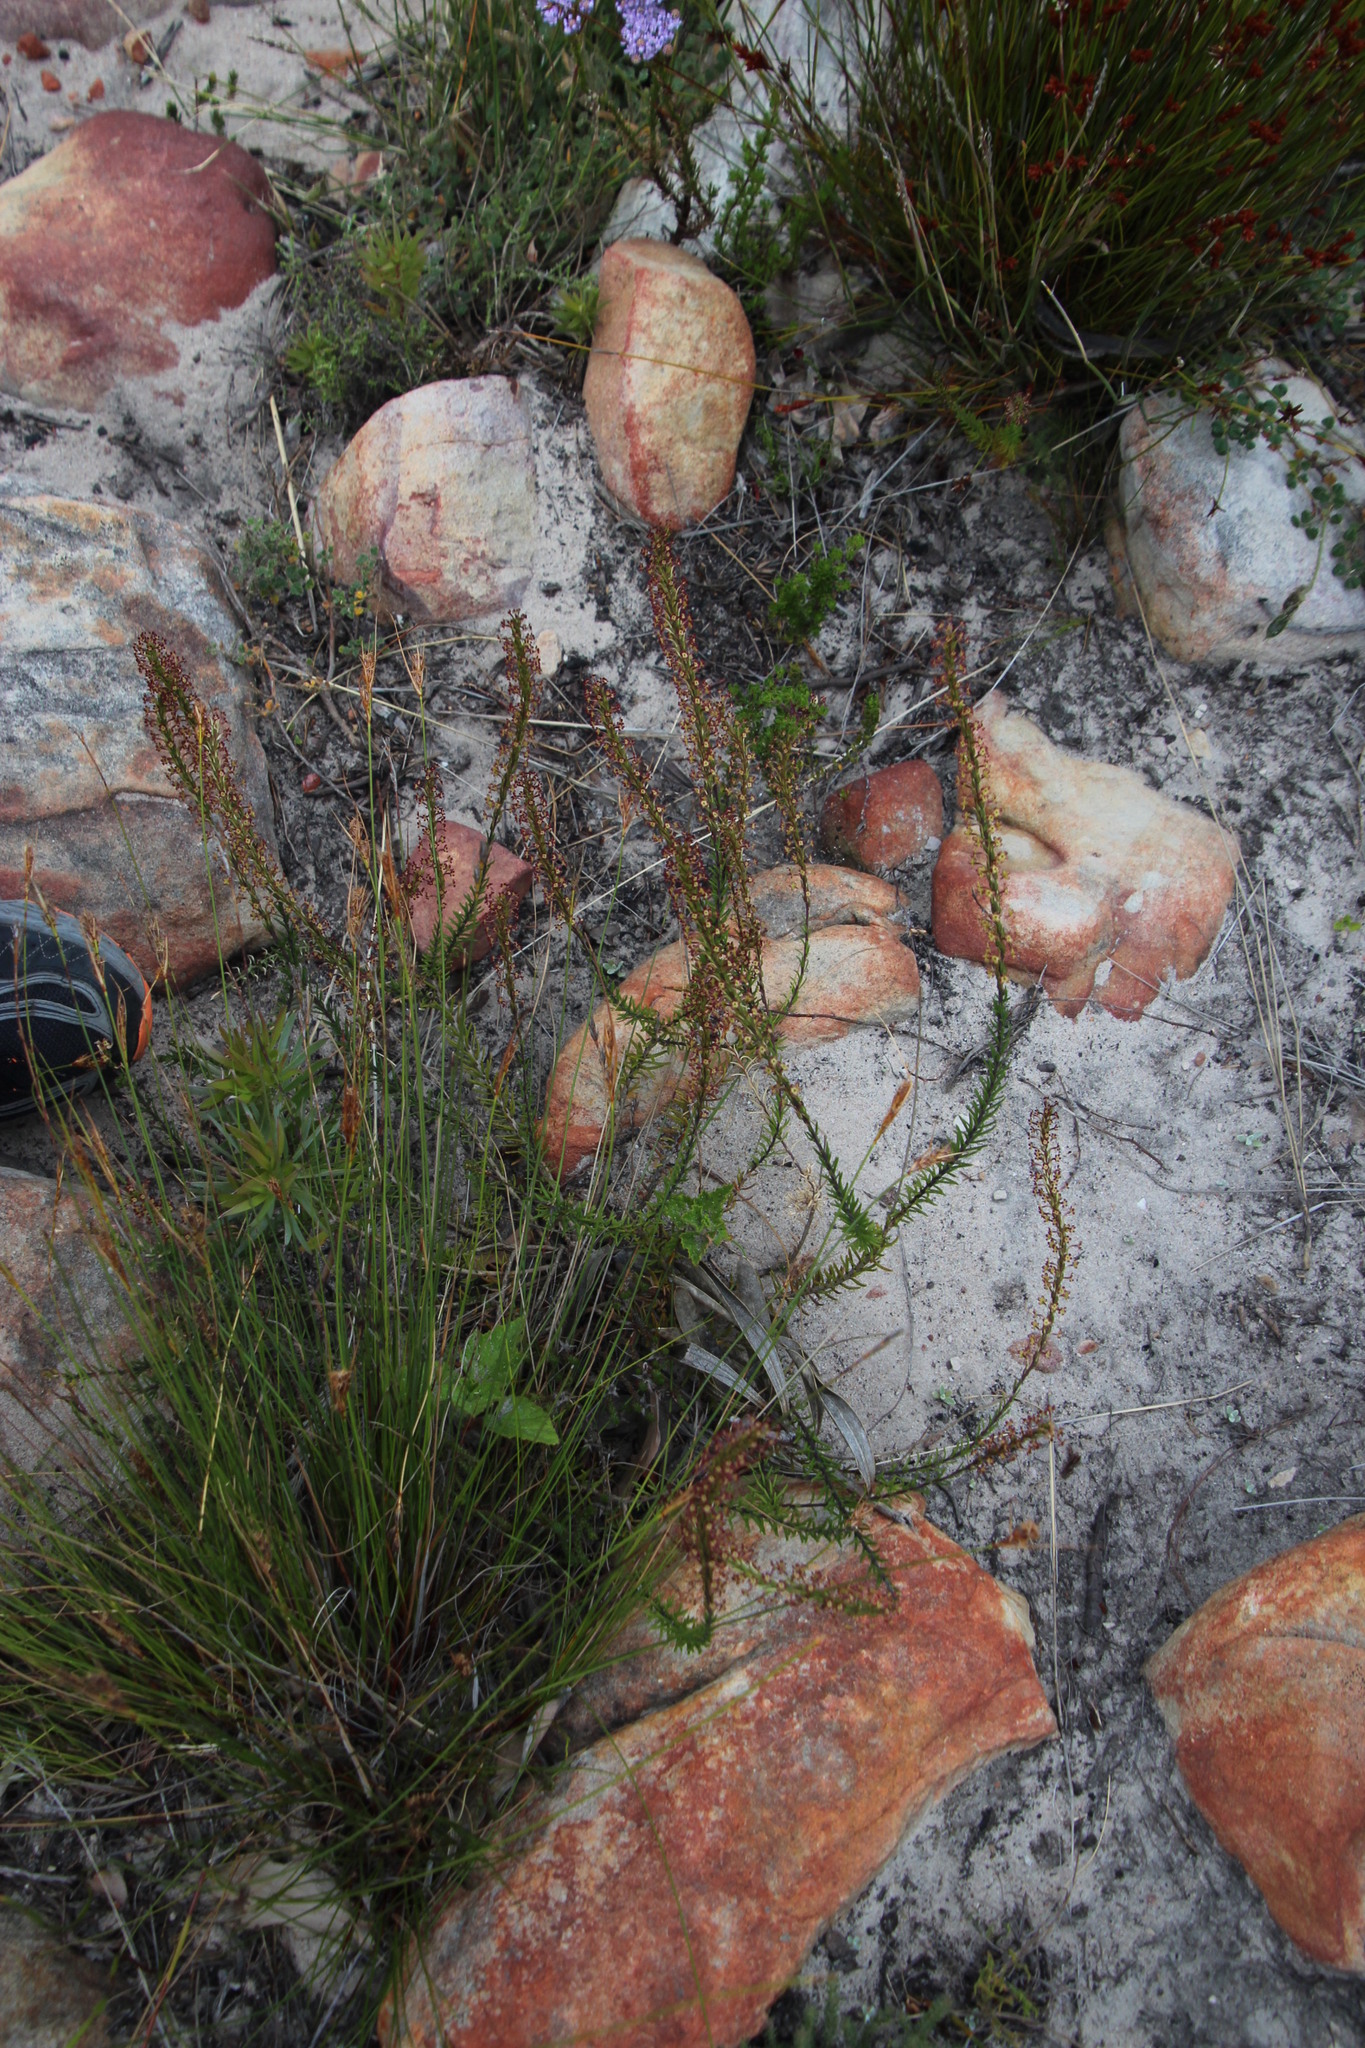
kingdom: Plantae
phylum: Tracheophyta
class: Magnoliopsida
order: Lamiales
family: Scrophulariaceae
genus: Microdon
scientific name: Microdon dubius
